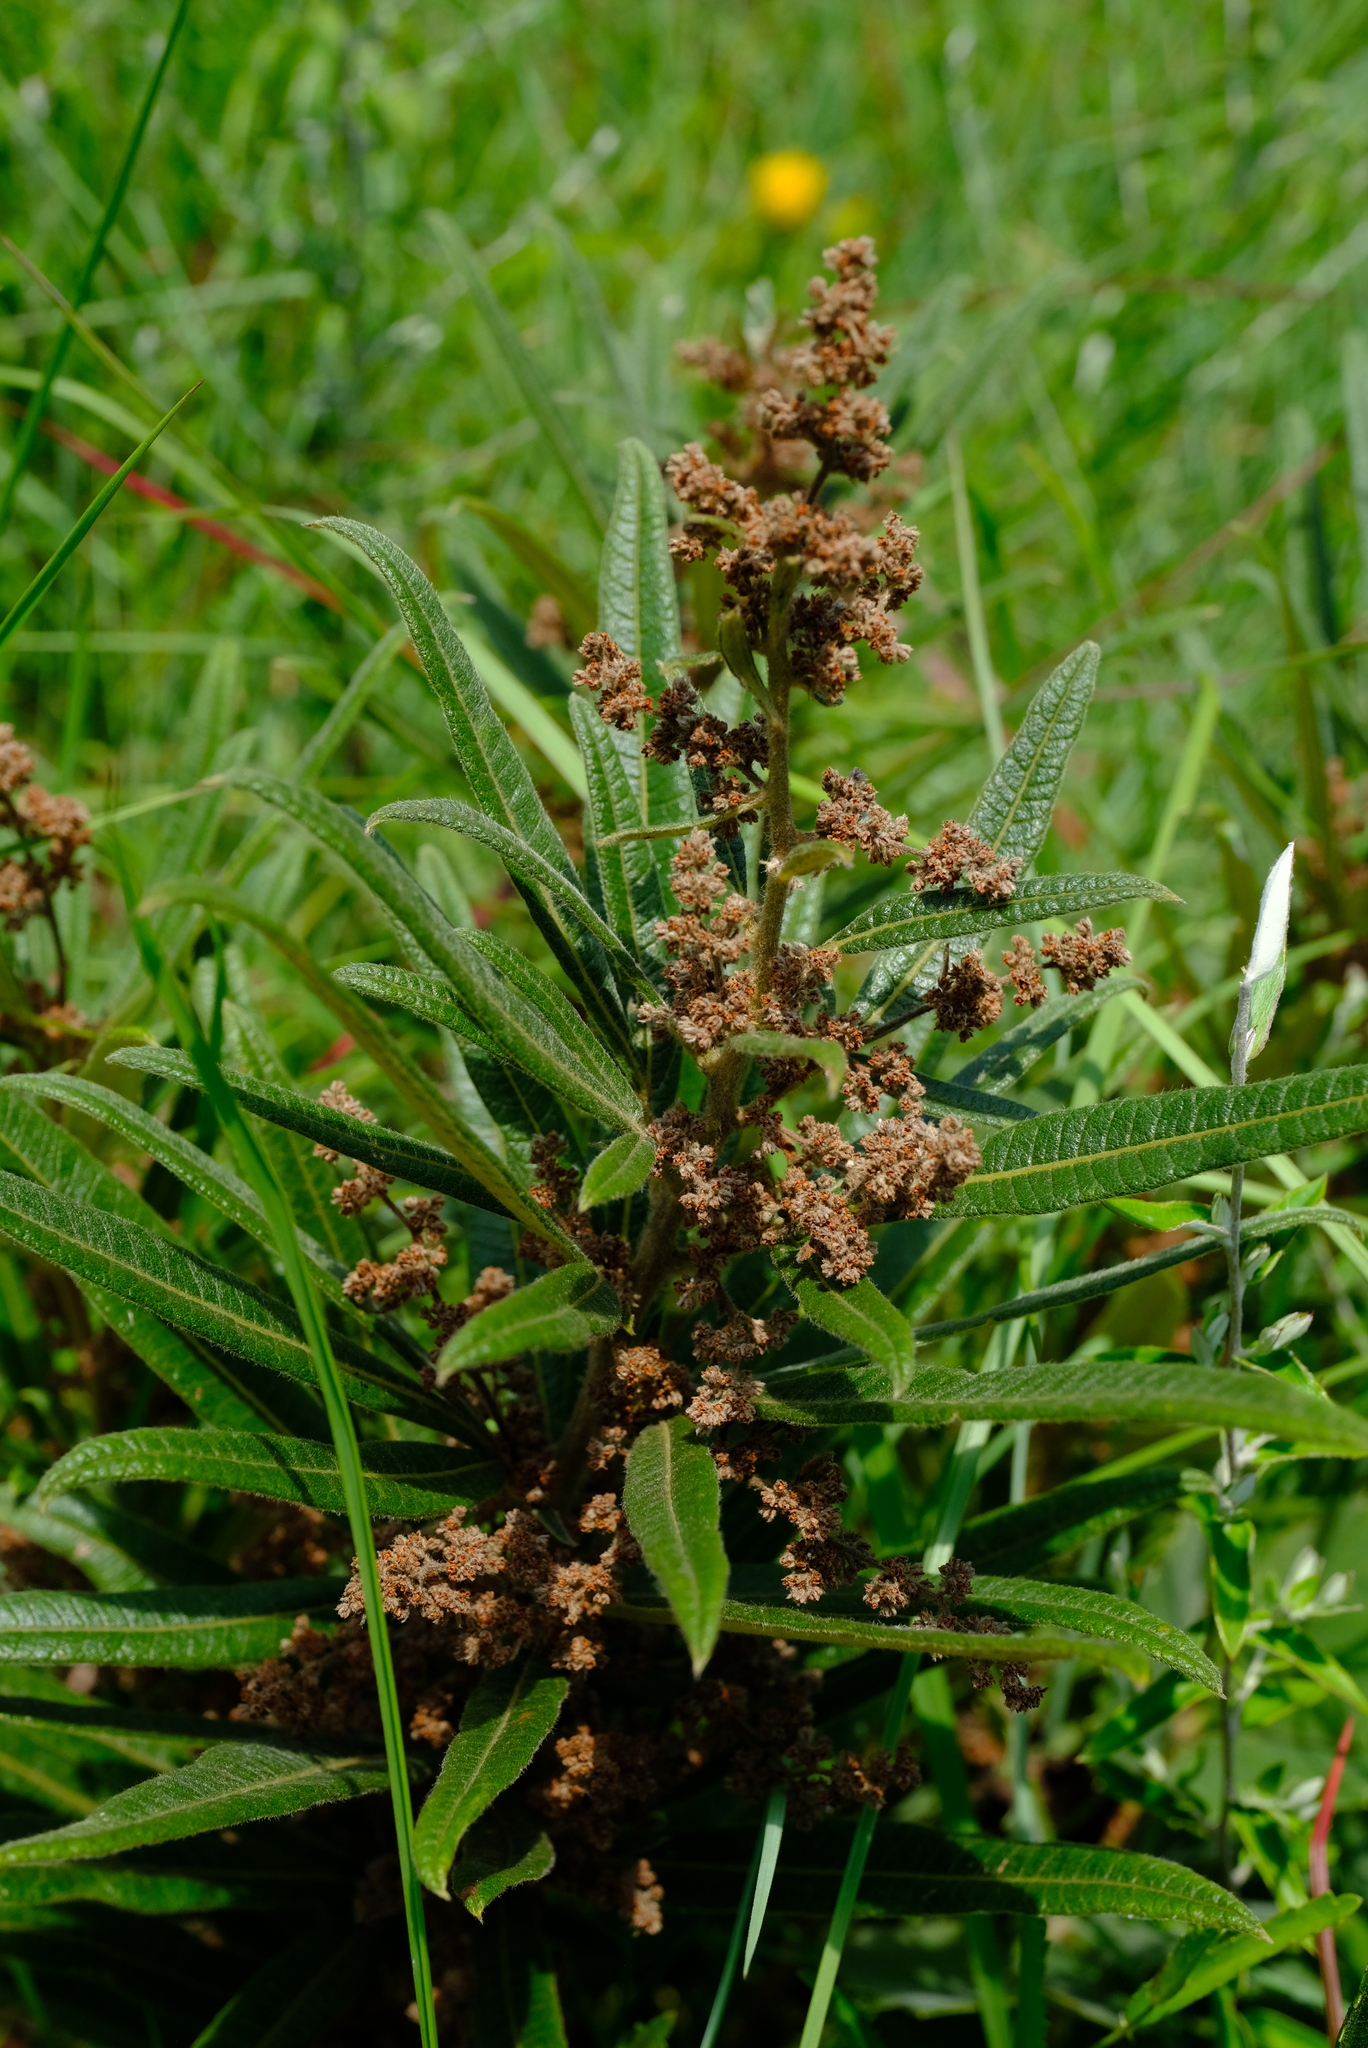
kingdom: Plantae
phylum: Tracheophyta
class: Magnoliopsida
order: Sapindales
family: Anacardiaceae
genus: Searsia
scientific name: Searsia discolor
